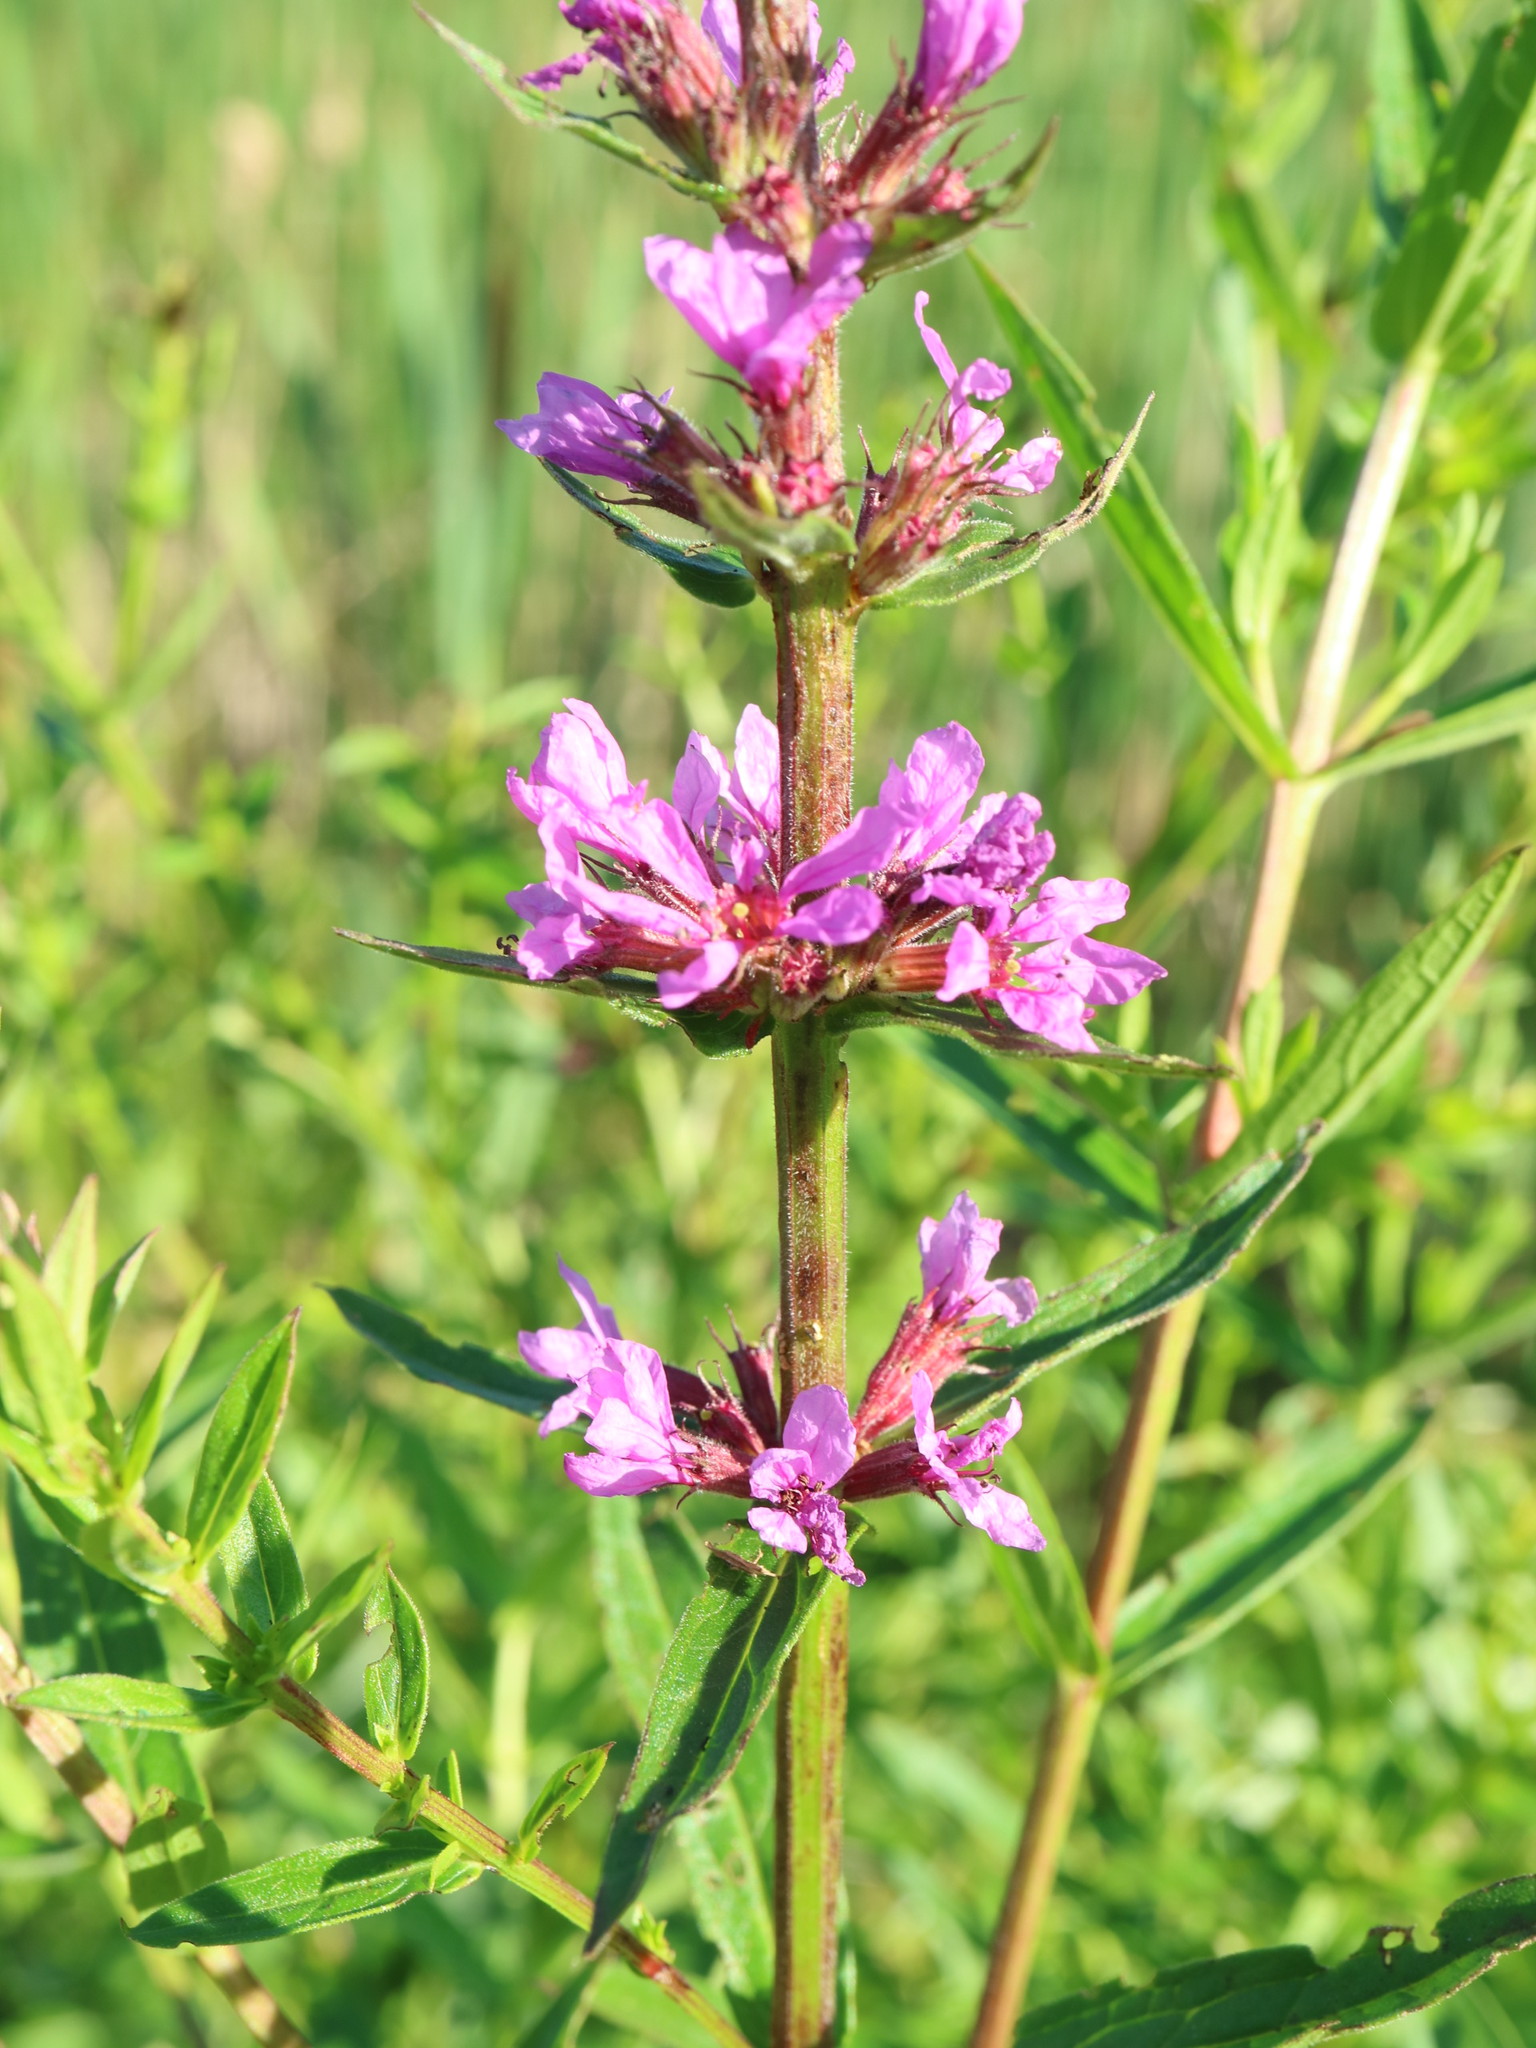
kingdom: Plantae
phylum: Tracheophyta
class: Magnoliopsida
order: Myrtales
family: Lythraceae
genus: Lythrum
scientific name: Lythrum salicaria
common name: Purple loosestrife
